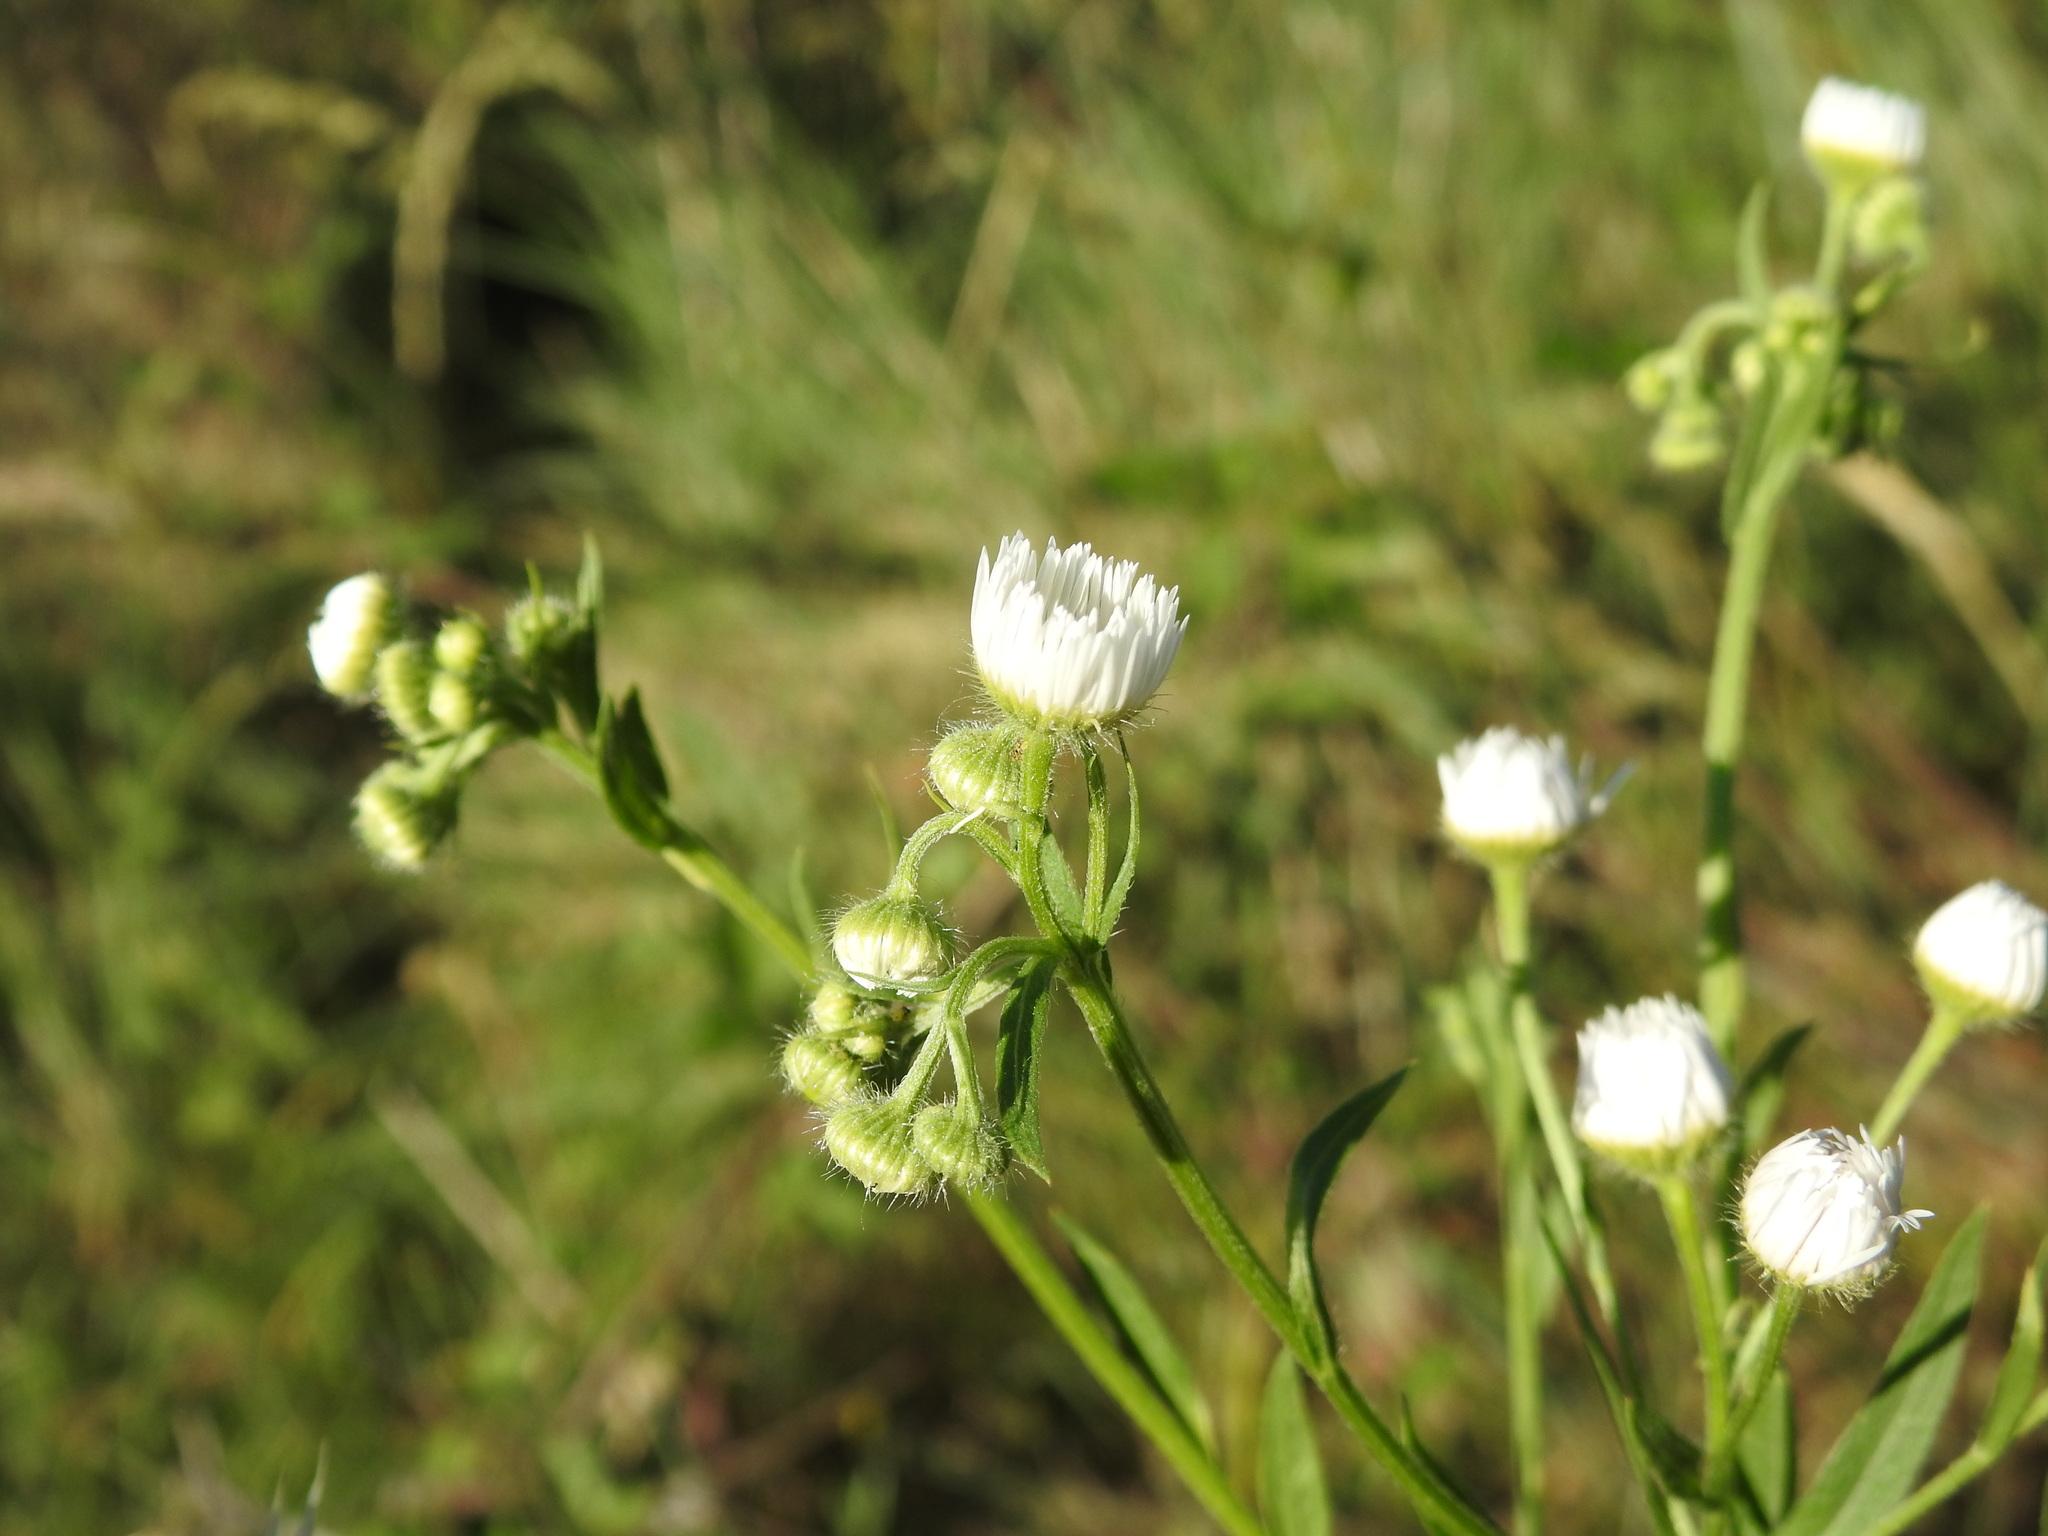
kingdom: Plantae
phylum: Tracheophyta
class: Magnoliopsida
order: Asterales
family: Asteraceae
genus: Erigeron
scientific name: Erigeron annuus
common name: Tall fleabane
